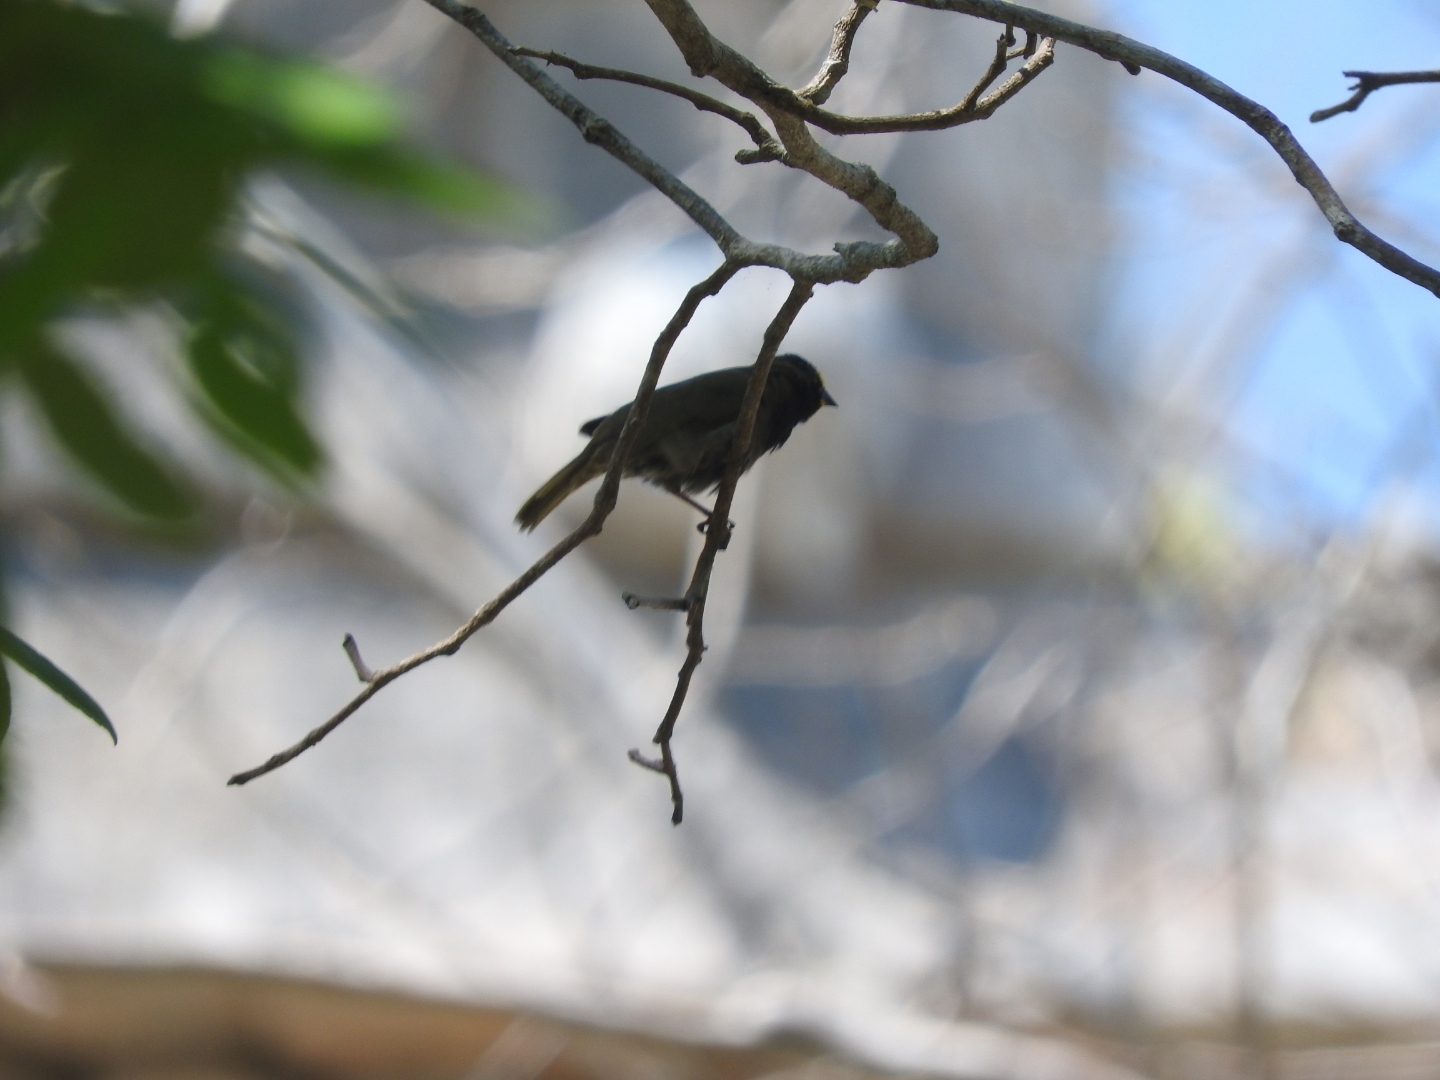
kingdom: Animalia
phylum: Chordata
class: Aves
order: Passeriformes
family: Thraupidae
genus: Tiaris
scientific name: Tiaris olivaceus
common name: Yellow-faced grassquit
